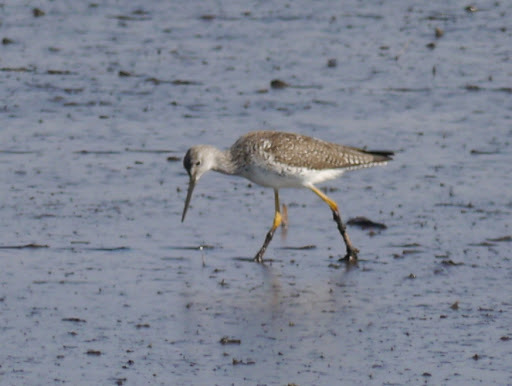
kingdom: Animalia
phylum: Chordata
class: Aves
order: Charadriiformes
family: Scolopacidae
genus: Tringa
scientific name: Tringa flavipes
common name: Lesser yellowlegs
